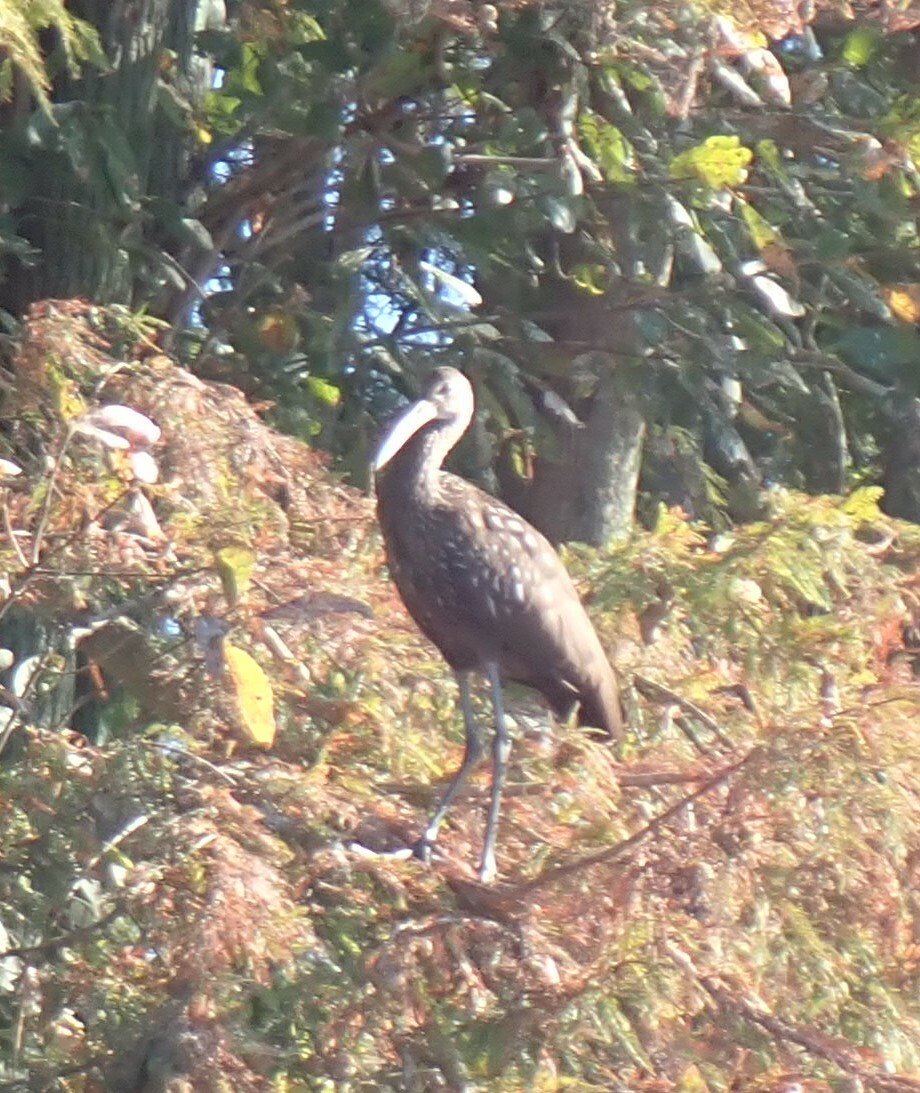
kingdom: Animalia
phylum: Chordata
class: Aves
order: Gruiformes
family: Aramidae
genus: Aramus
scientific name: Aramus guarauna
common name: Limpkin
